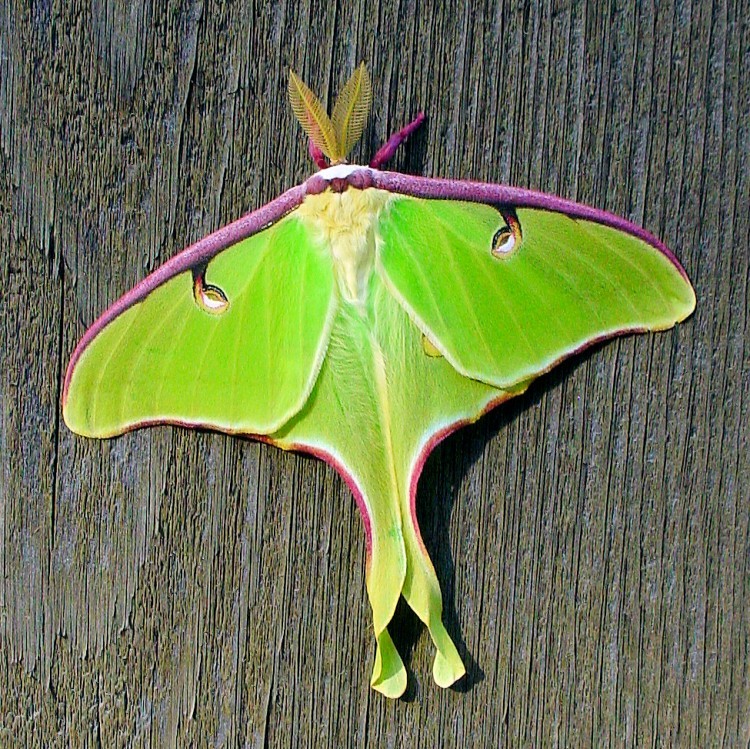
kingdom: Animalia
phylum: Arthropoda
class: Insecta
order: Lepidoptera
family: Saturniidae
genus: Actias
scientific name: Actias luna
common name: Luna moth
